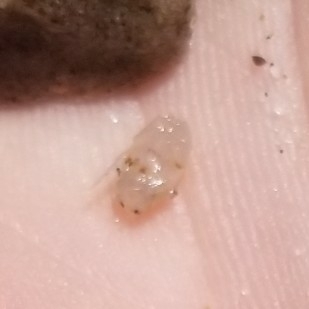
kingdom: Animalia
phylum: Arthropoda
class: Malacostraca
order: Decapoda
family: Hippidae
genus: Emerita
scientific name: Emerita analoga
